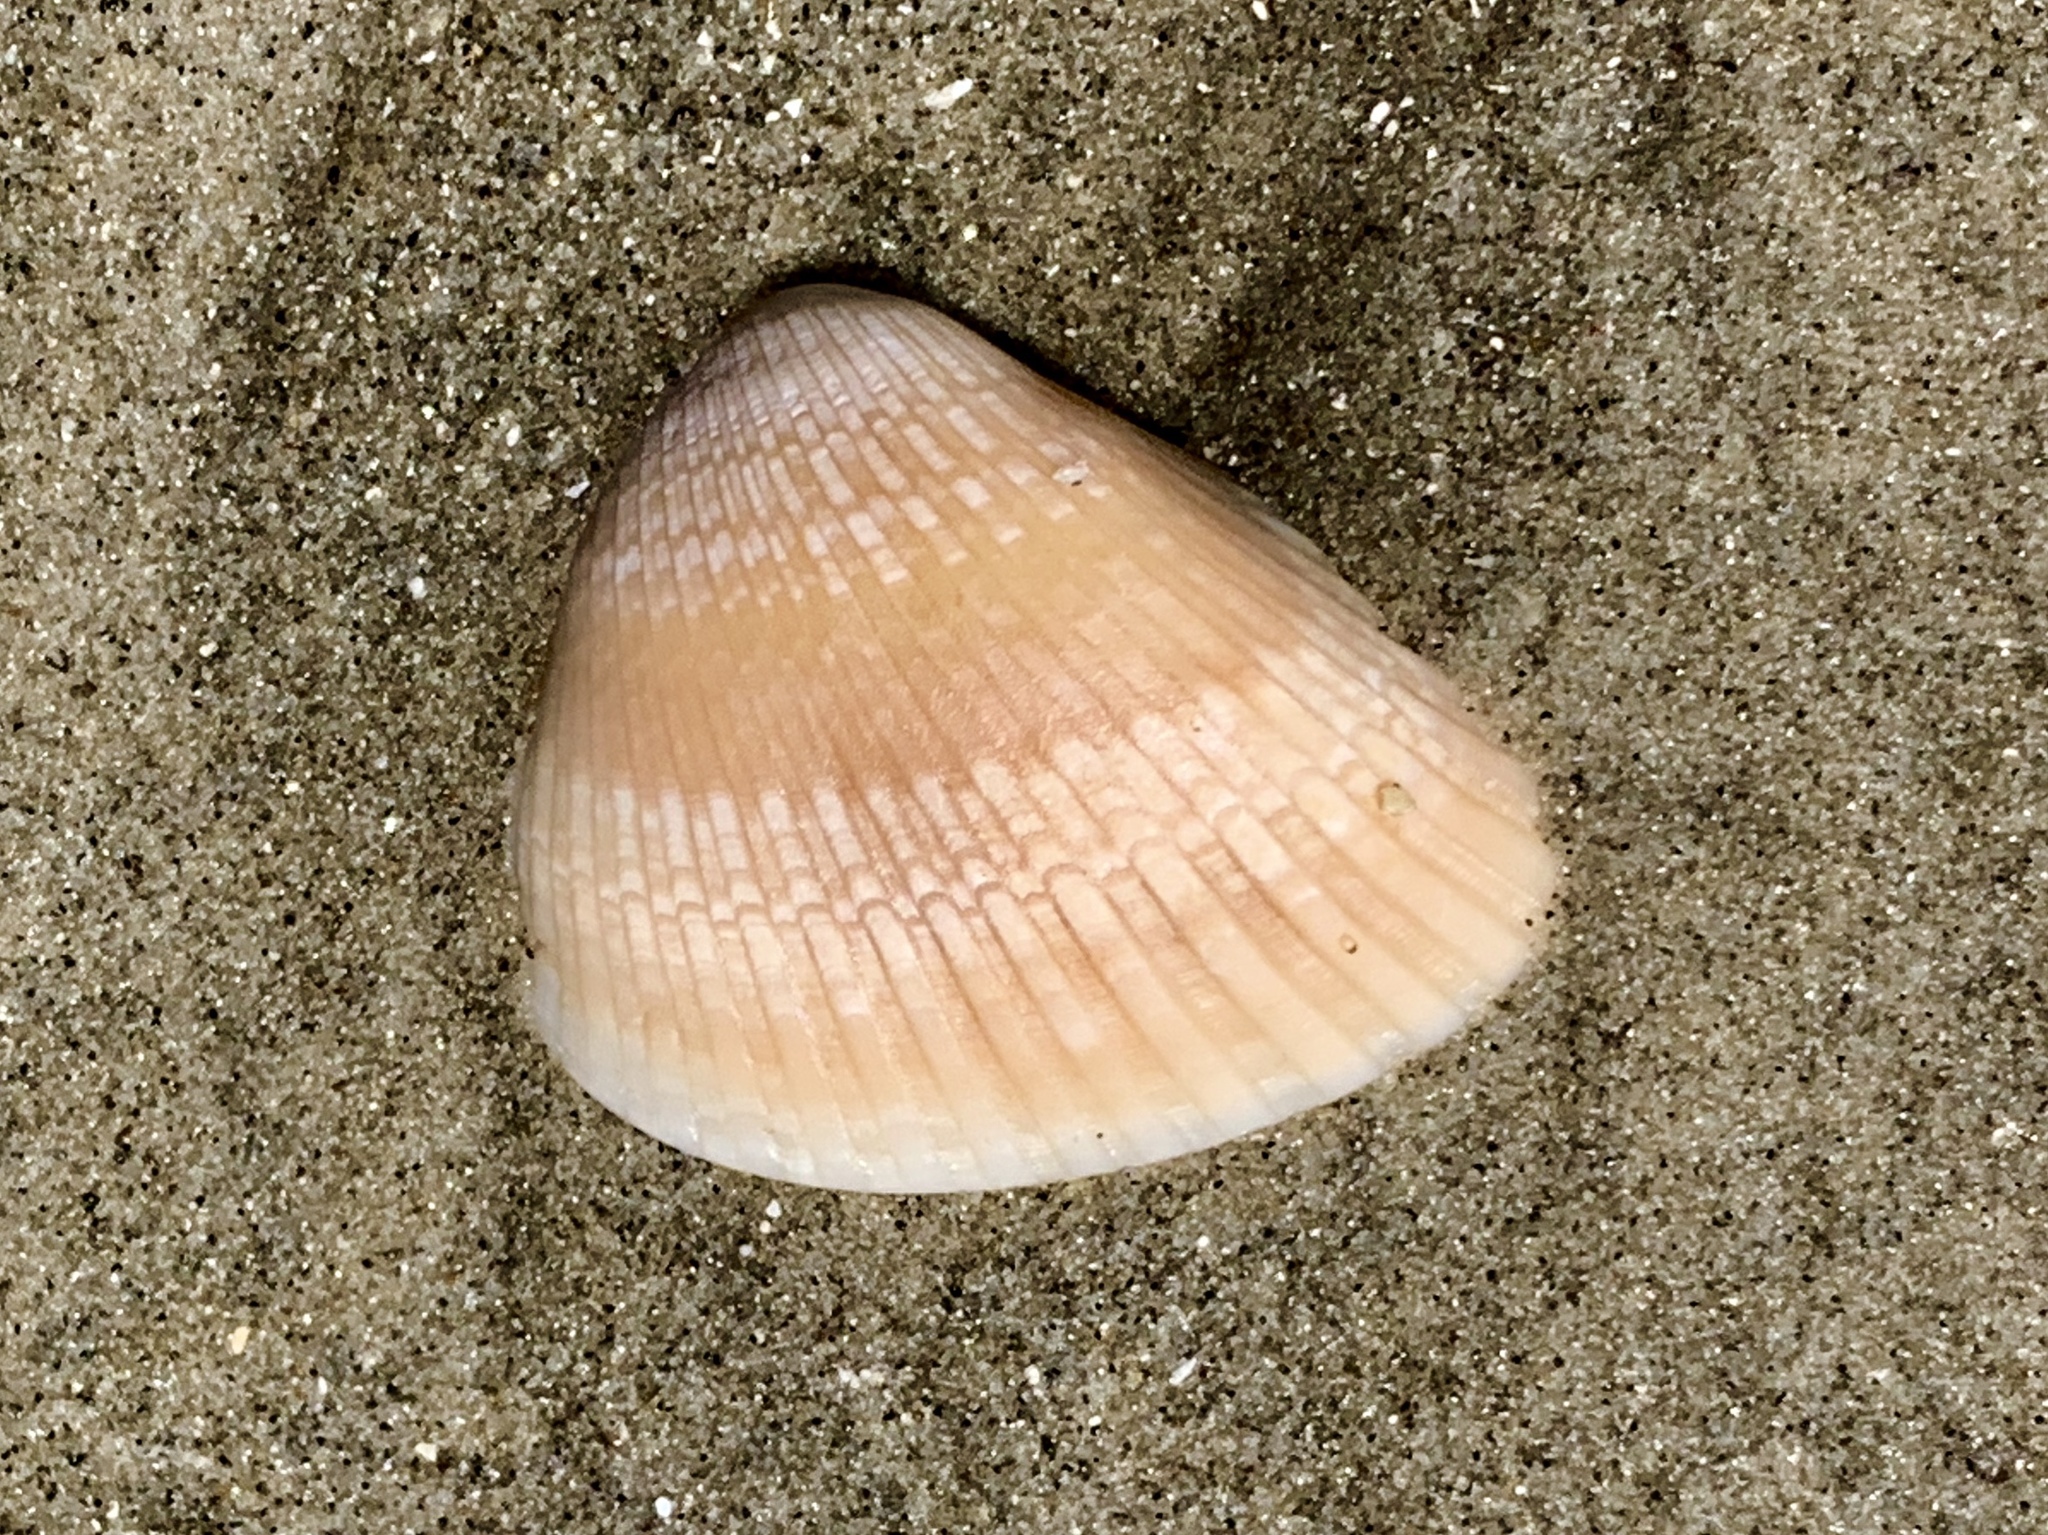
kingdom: Animalia
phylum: Mollusca
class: Bivalvia
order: Arcida
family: Noetiidae
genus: Noetia
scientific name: Noetia ponderosa
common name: Ponderous ark
